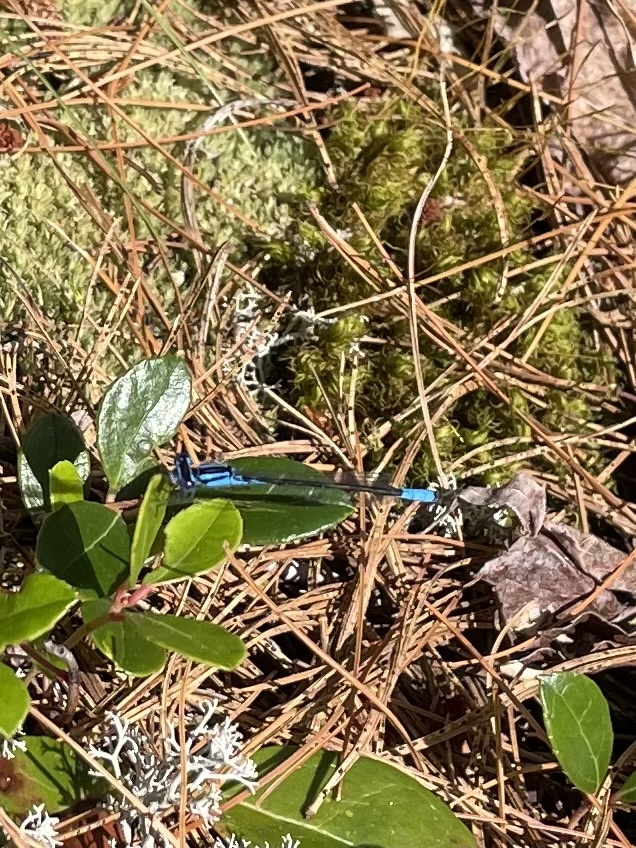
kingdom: Animalia
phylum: Arthropoda
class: Insecta
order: Odonata
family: Coenagrionidae
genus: Enallagma
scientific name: Enallagma aspersum
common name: Azure bluet
